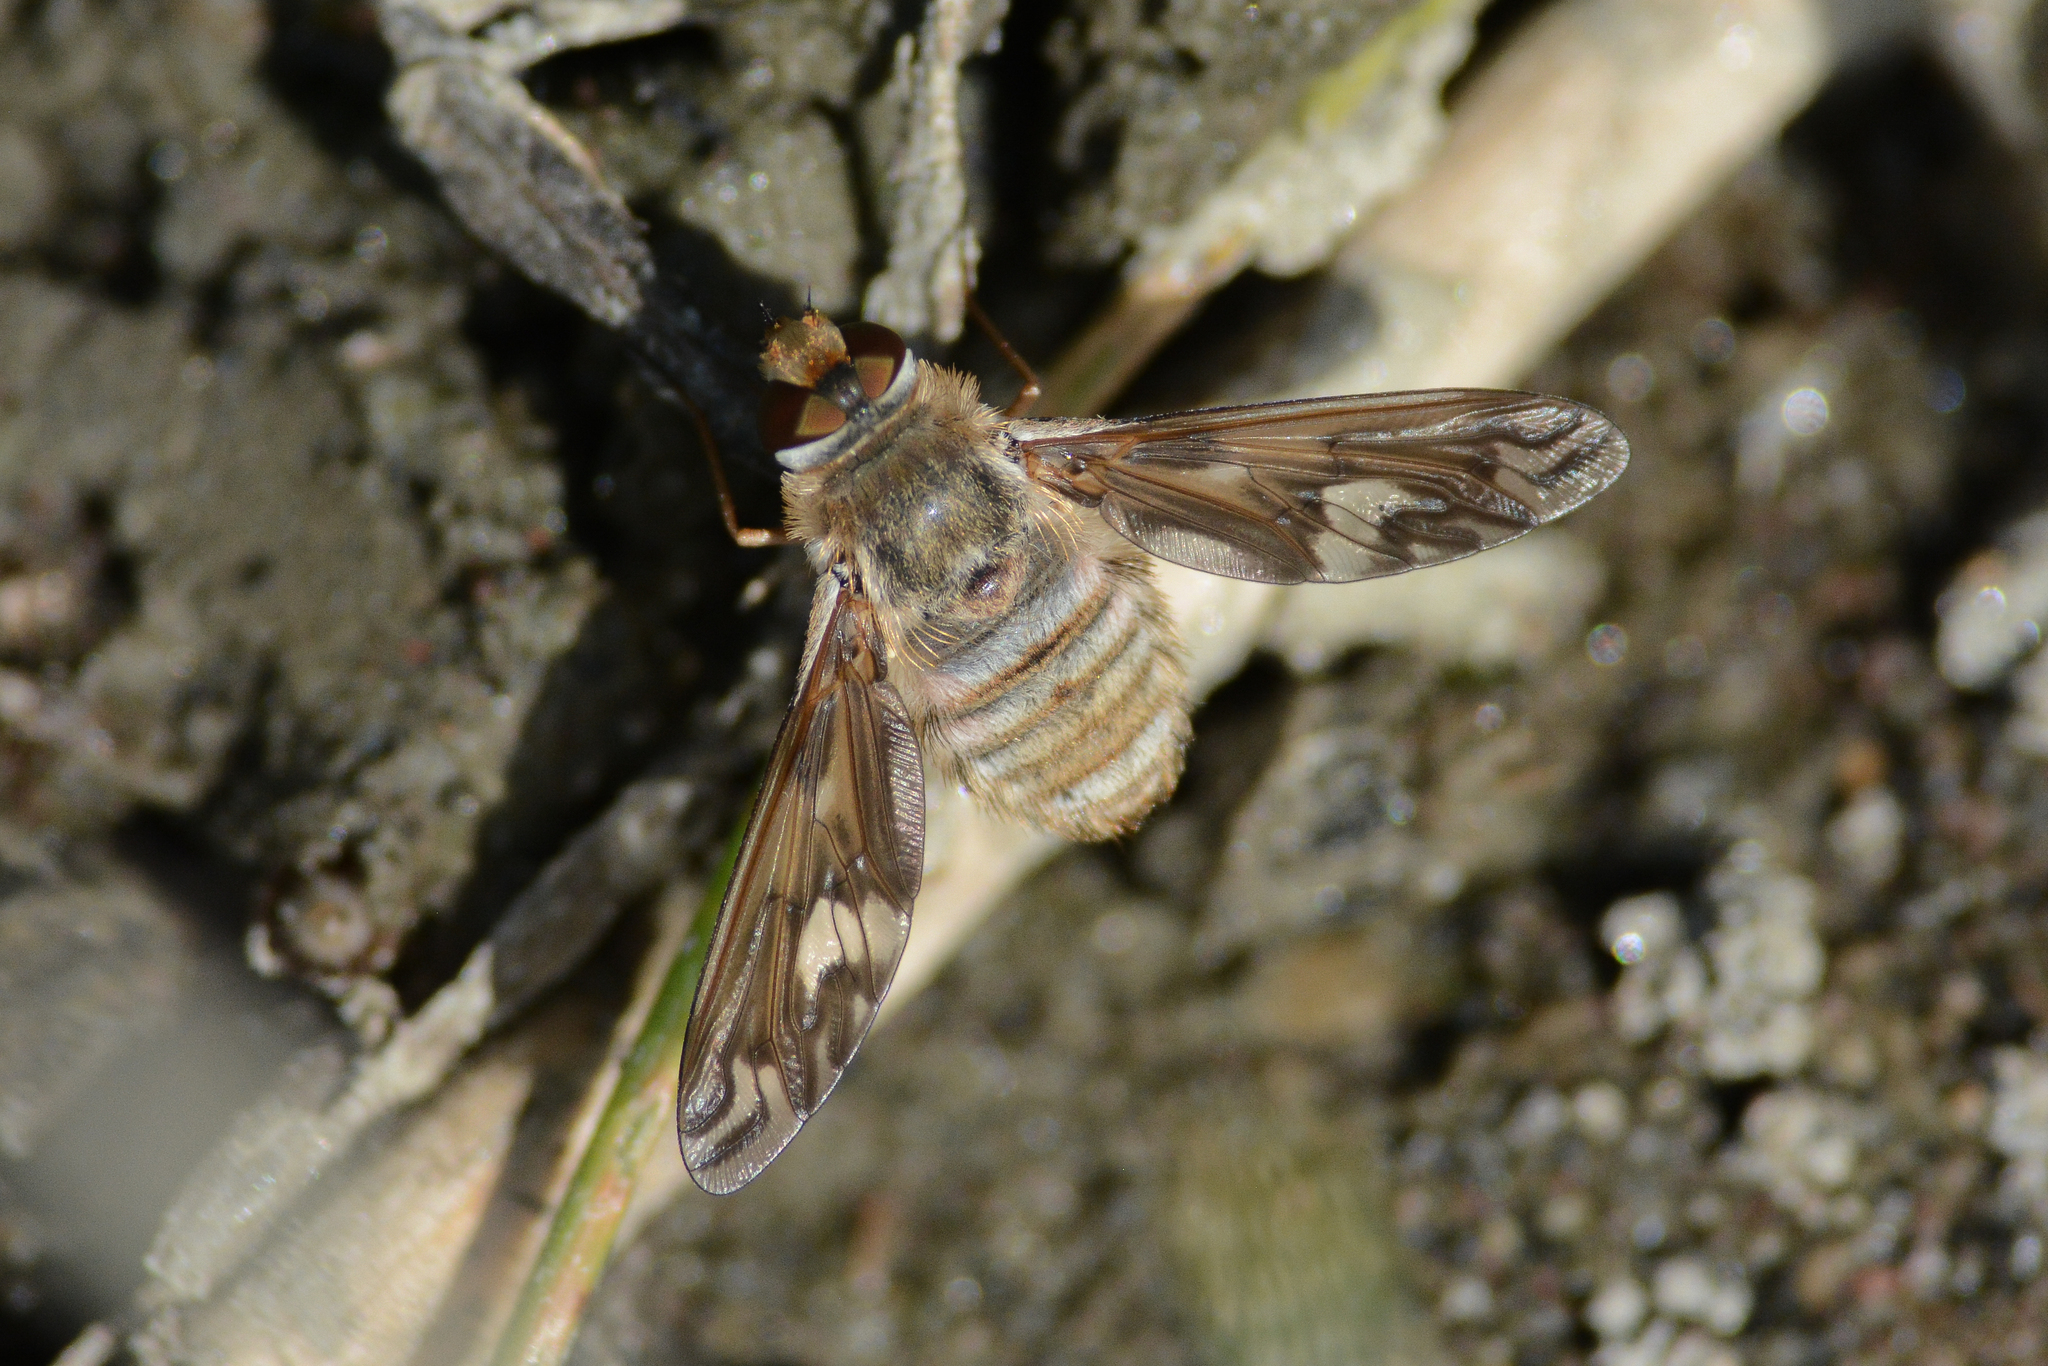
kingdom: Animalia
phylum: Arthropoda
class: Insecta
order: Diptera
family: Bombyliidae
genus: Poecilanthrax
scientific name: Poecilanthrax willistonii
